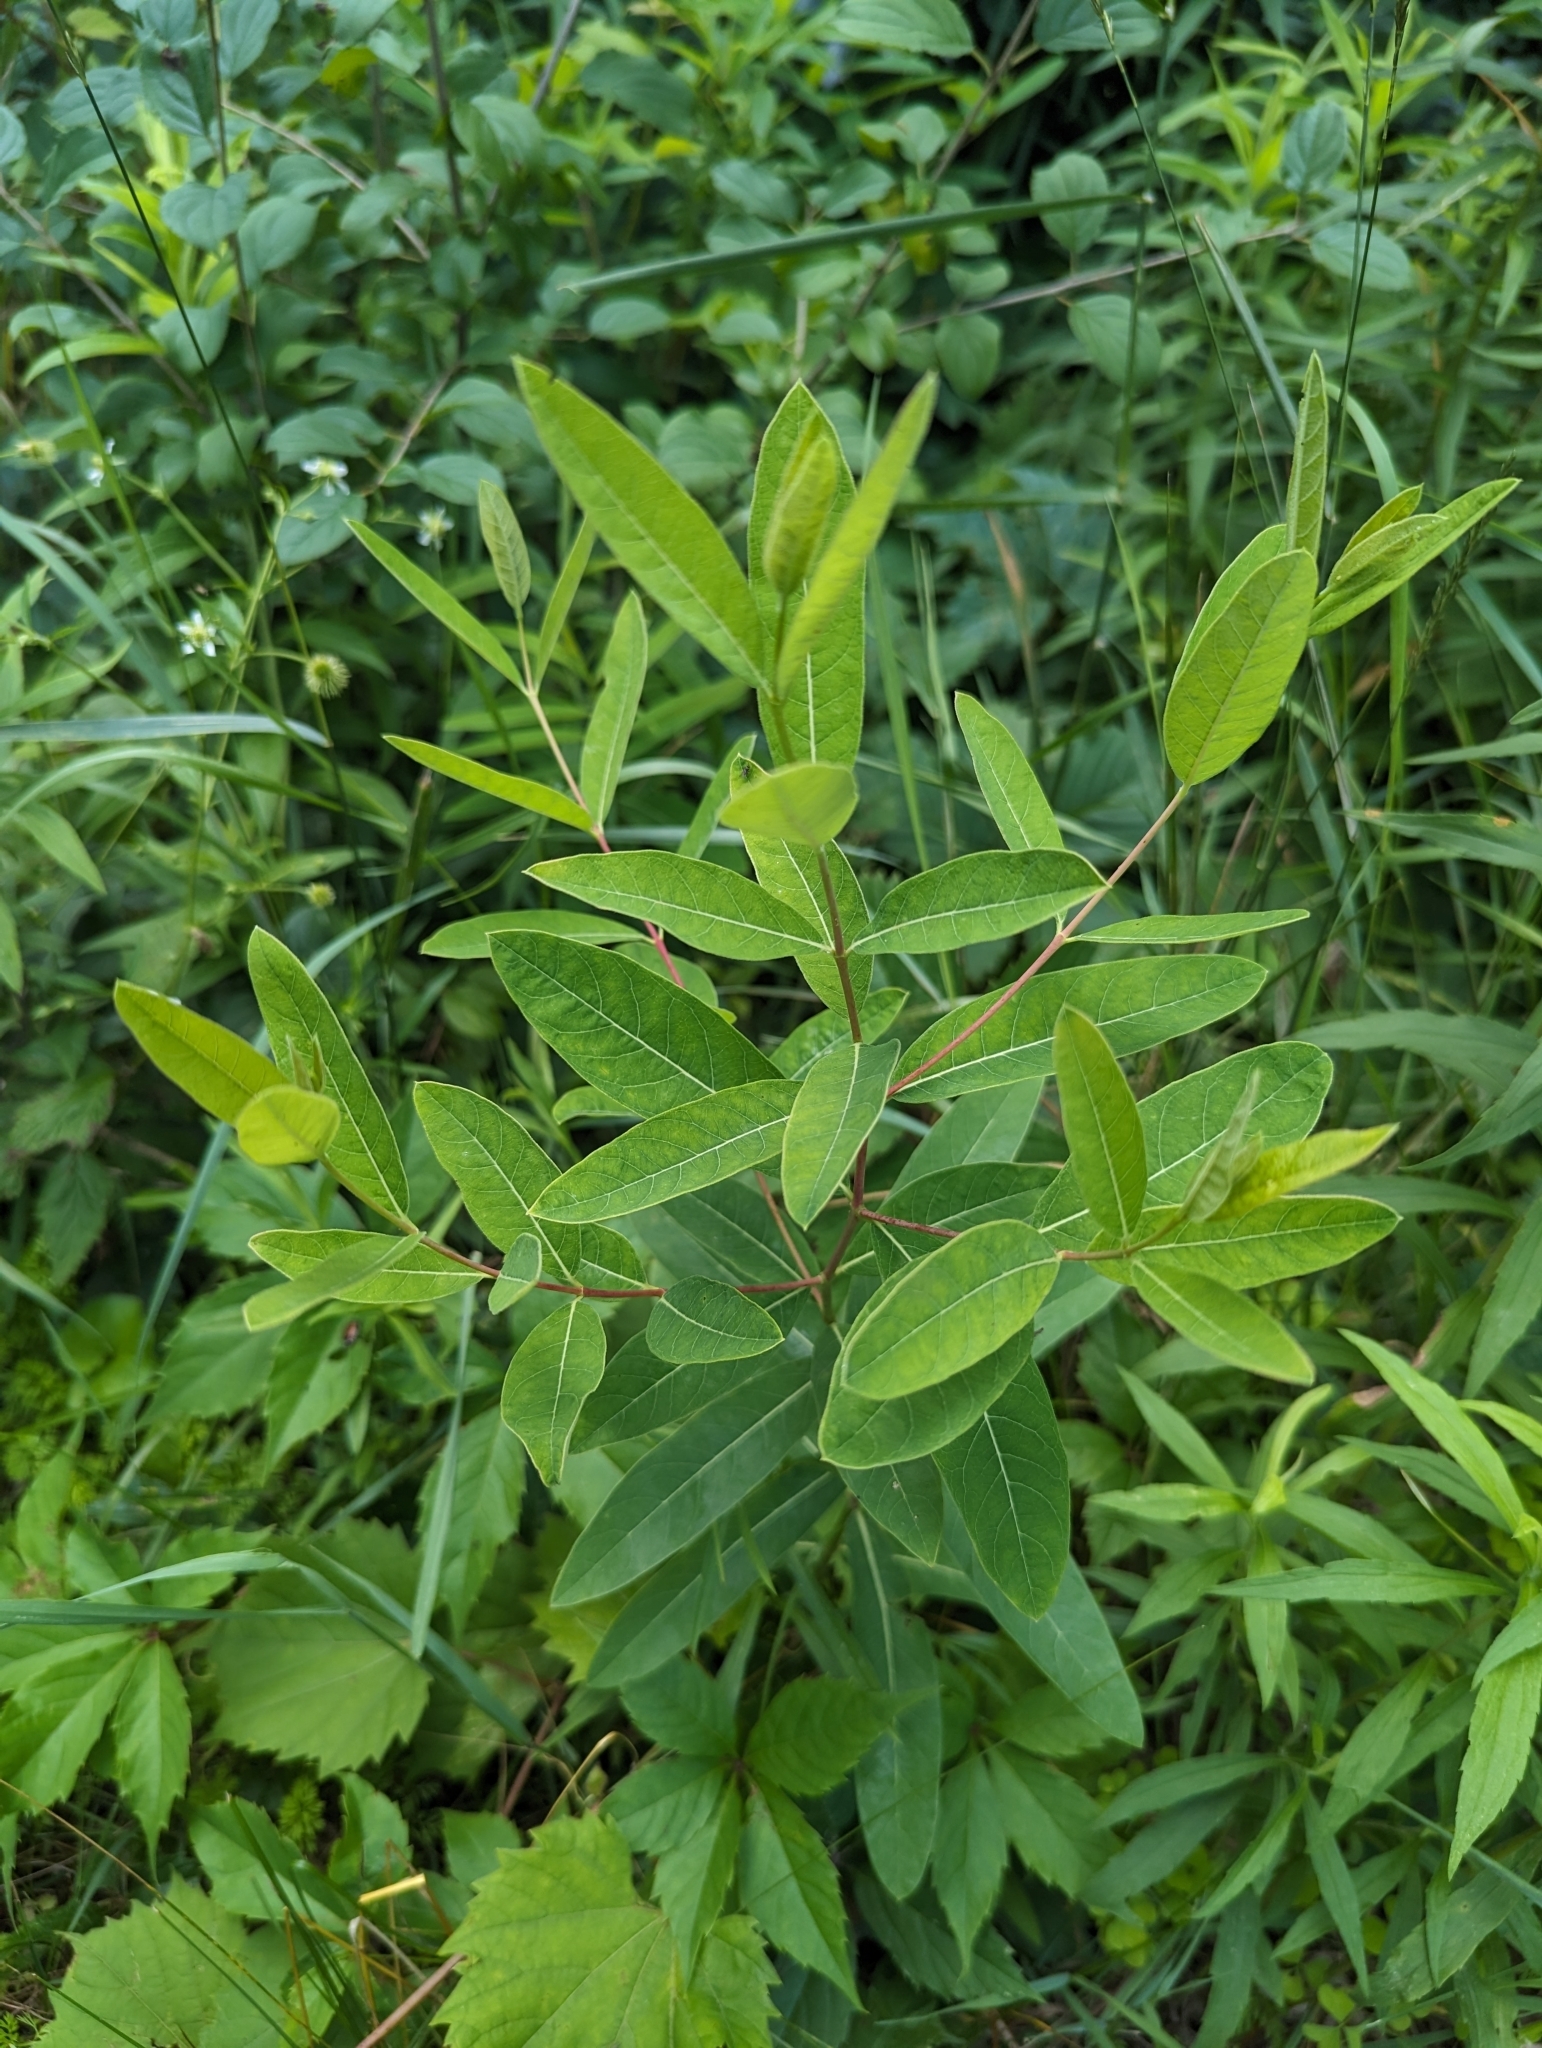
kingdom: Plantae
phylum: Tracheophyta
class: Magnoliopsida
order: Gentianales
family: Apocynaceae
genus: Apocynum
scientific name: Apocynum cannabinum
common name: Hemp dogbane
